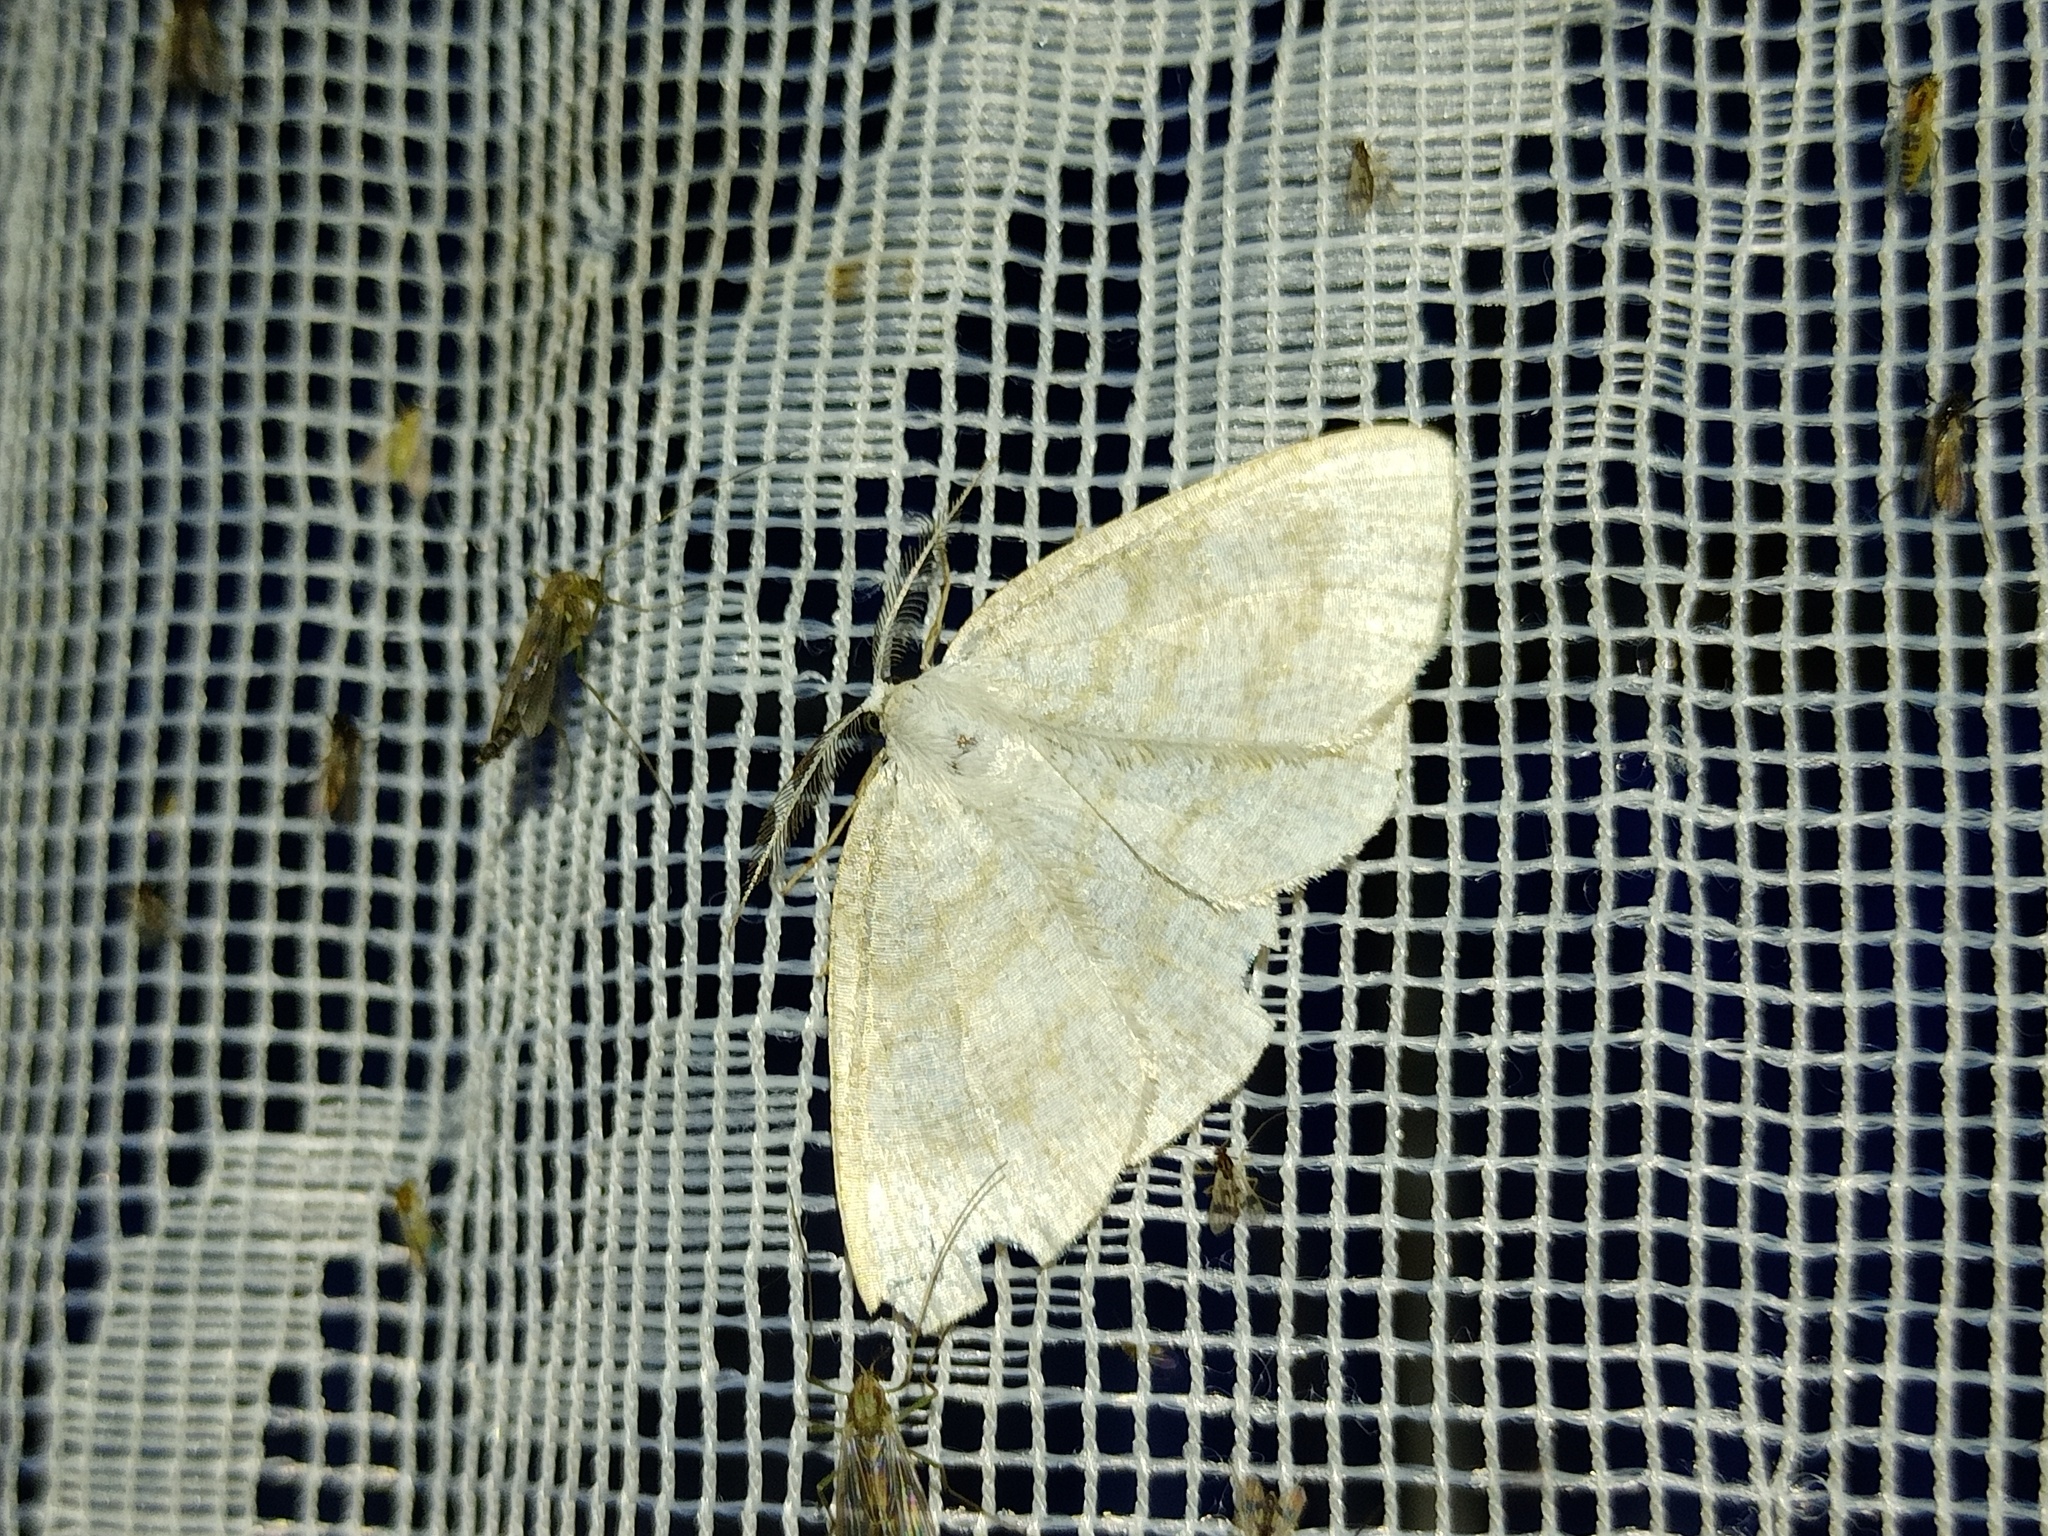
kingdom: Animalia
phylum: Arthropoda
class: Insecta
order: Lepidoptera
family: Geometridae
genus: Cabera
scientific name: Cabera exanthemata
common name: Common wave
